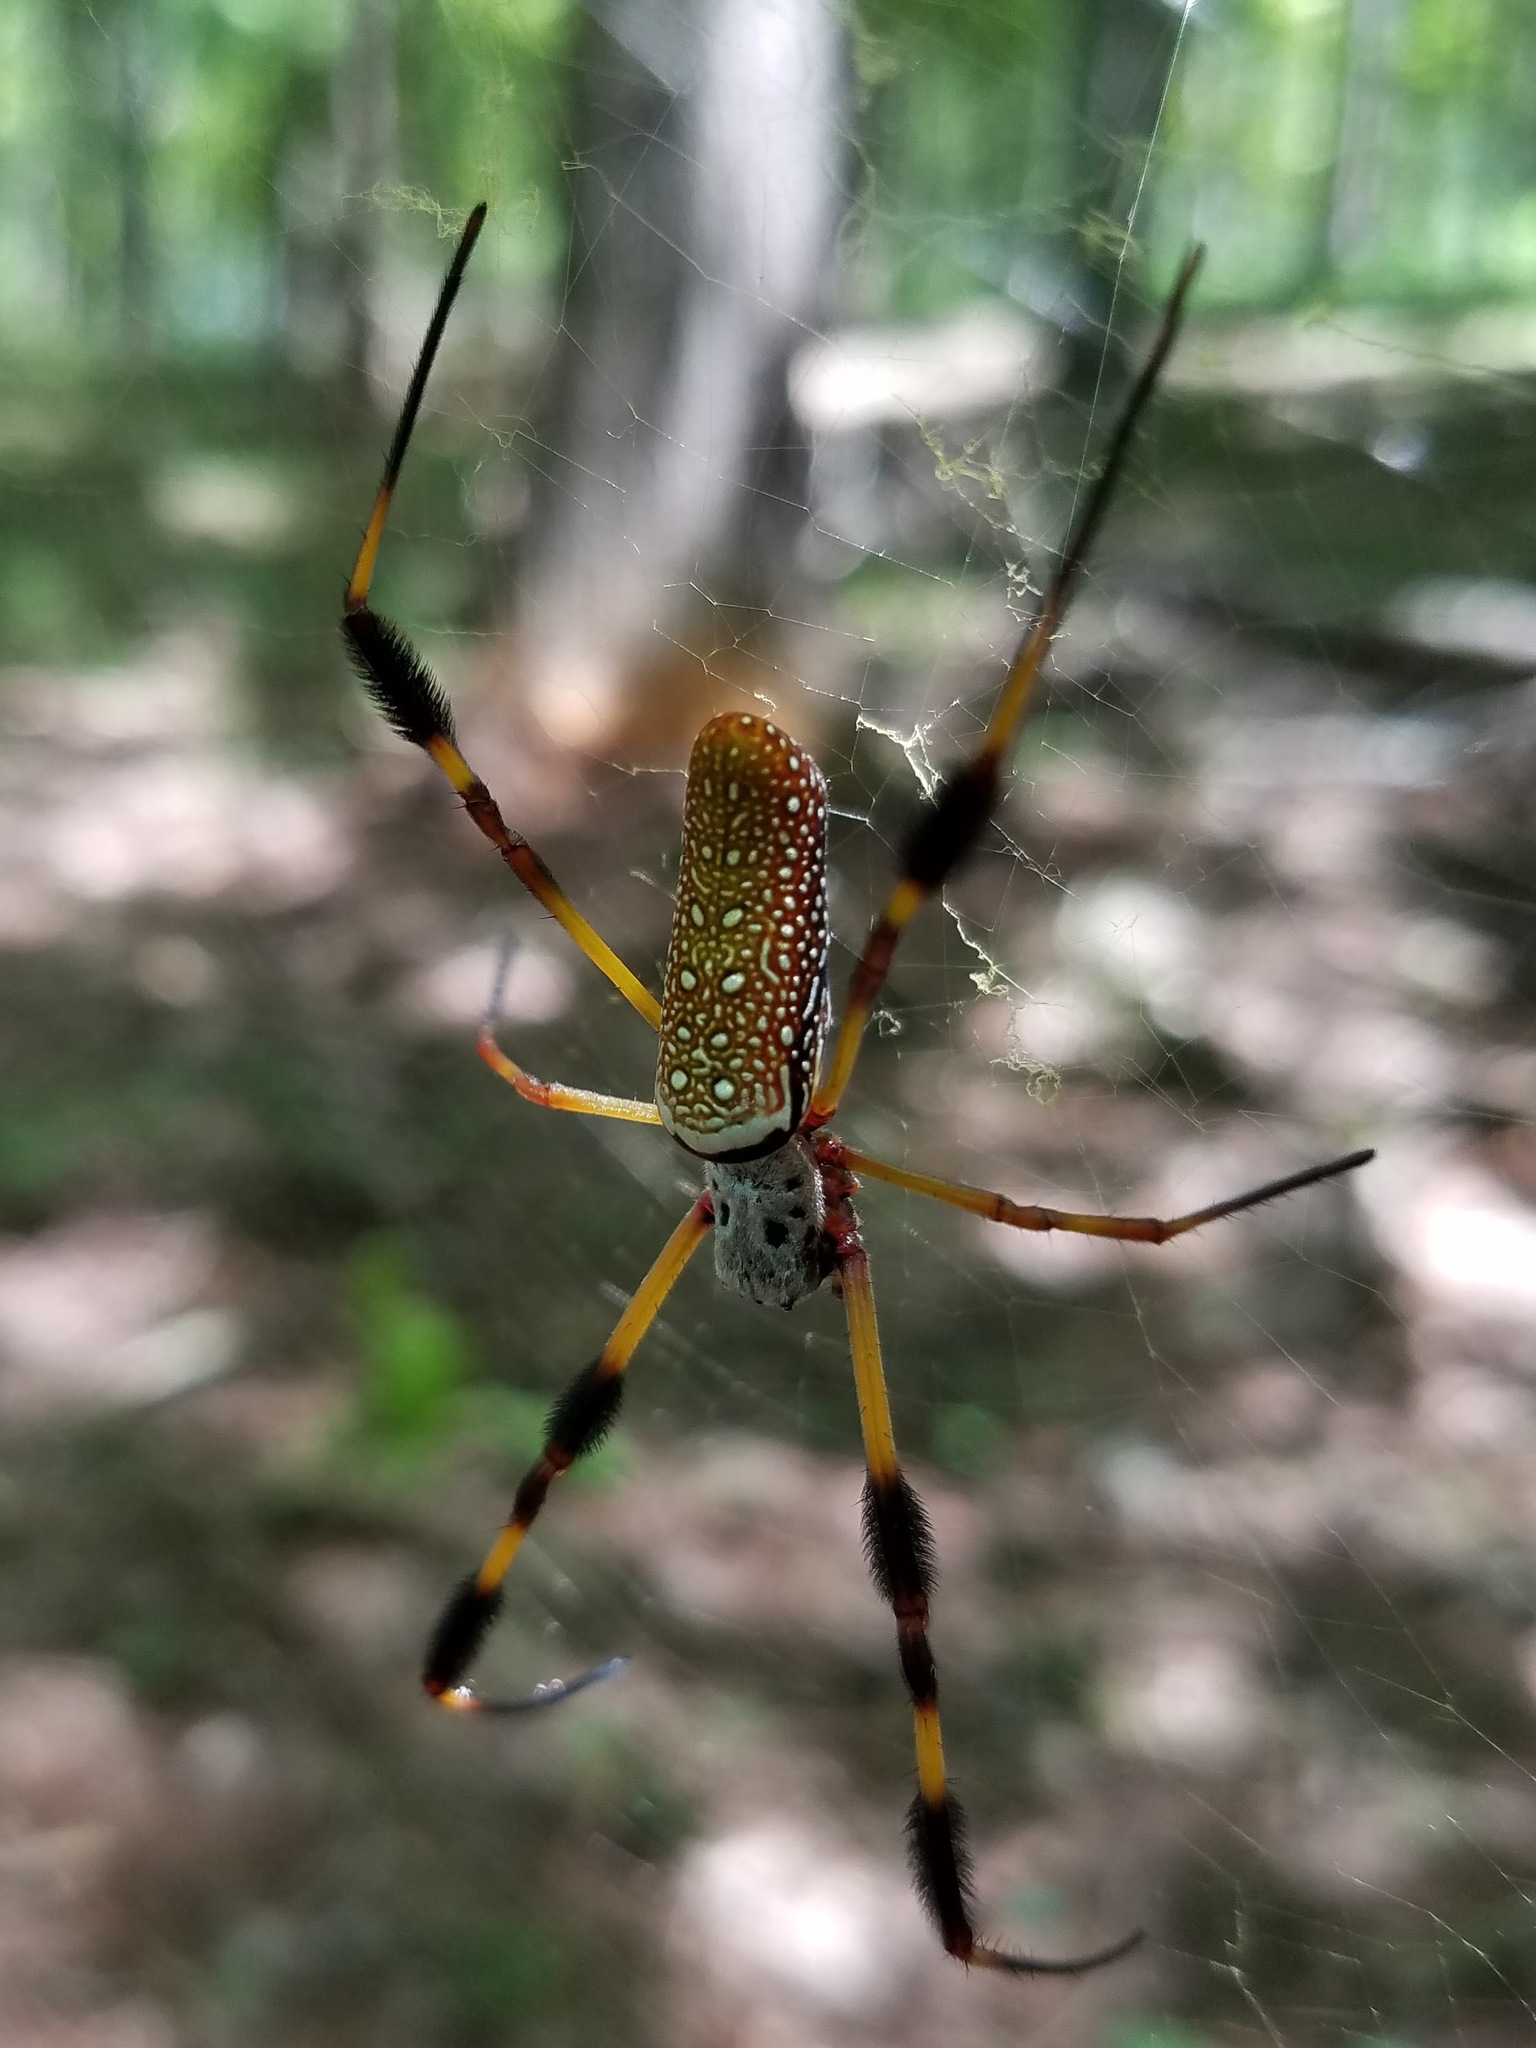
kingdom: Animalia
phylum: Arthropoda
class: Arachnida
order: Araneae
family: Araneidae
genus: Trichonephila
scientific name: Trichonephila clavipes
